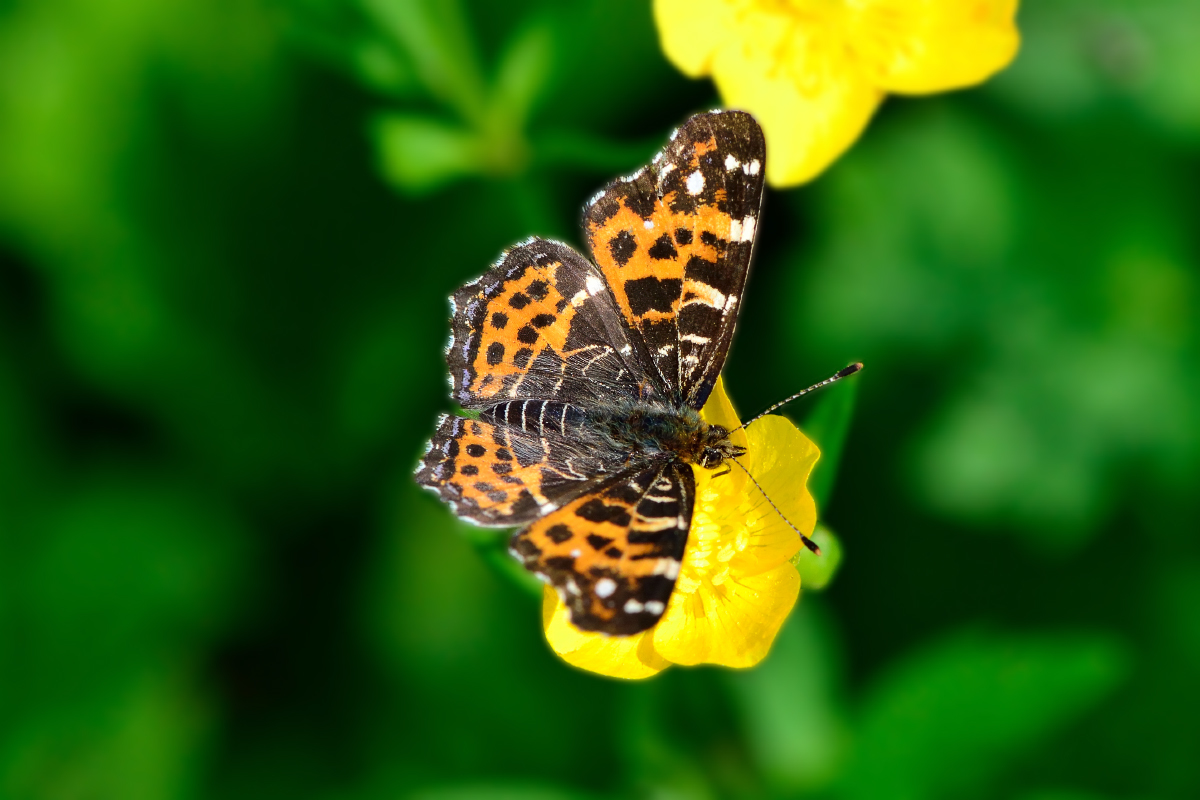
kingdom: Animalia
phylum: Arthropoda
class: Insecta
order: Lepidoptera
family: Nymphalidae
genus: Araschnia
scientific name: Araschnia levana
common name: Map butterfly
